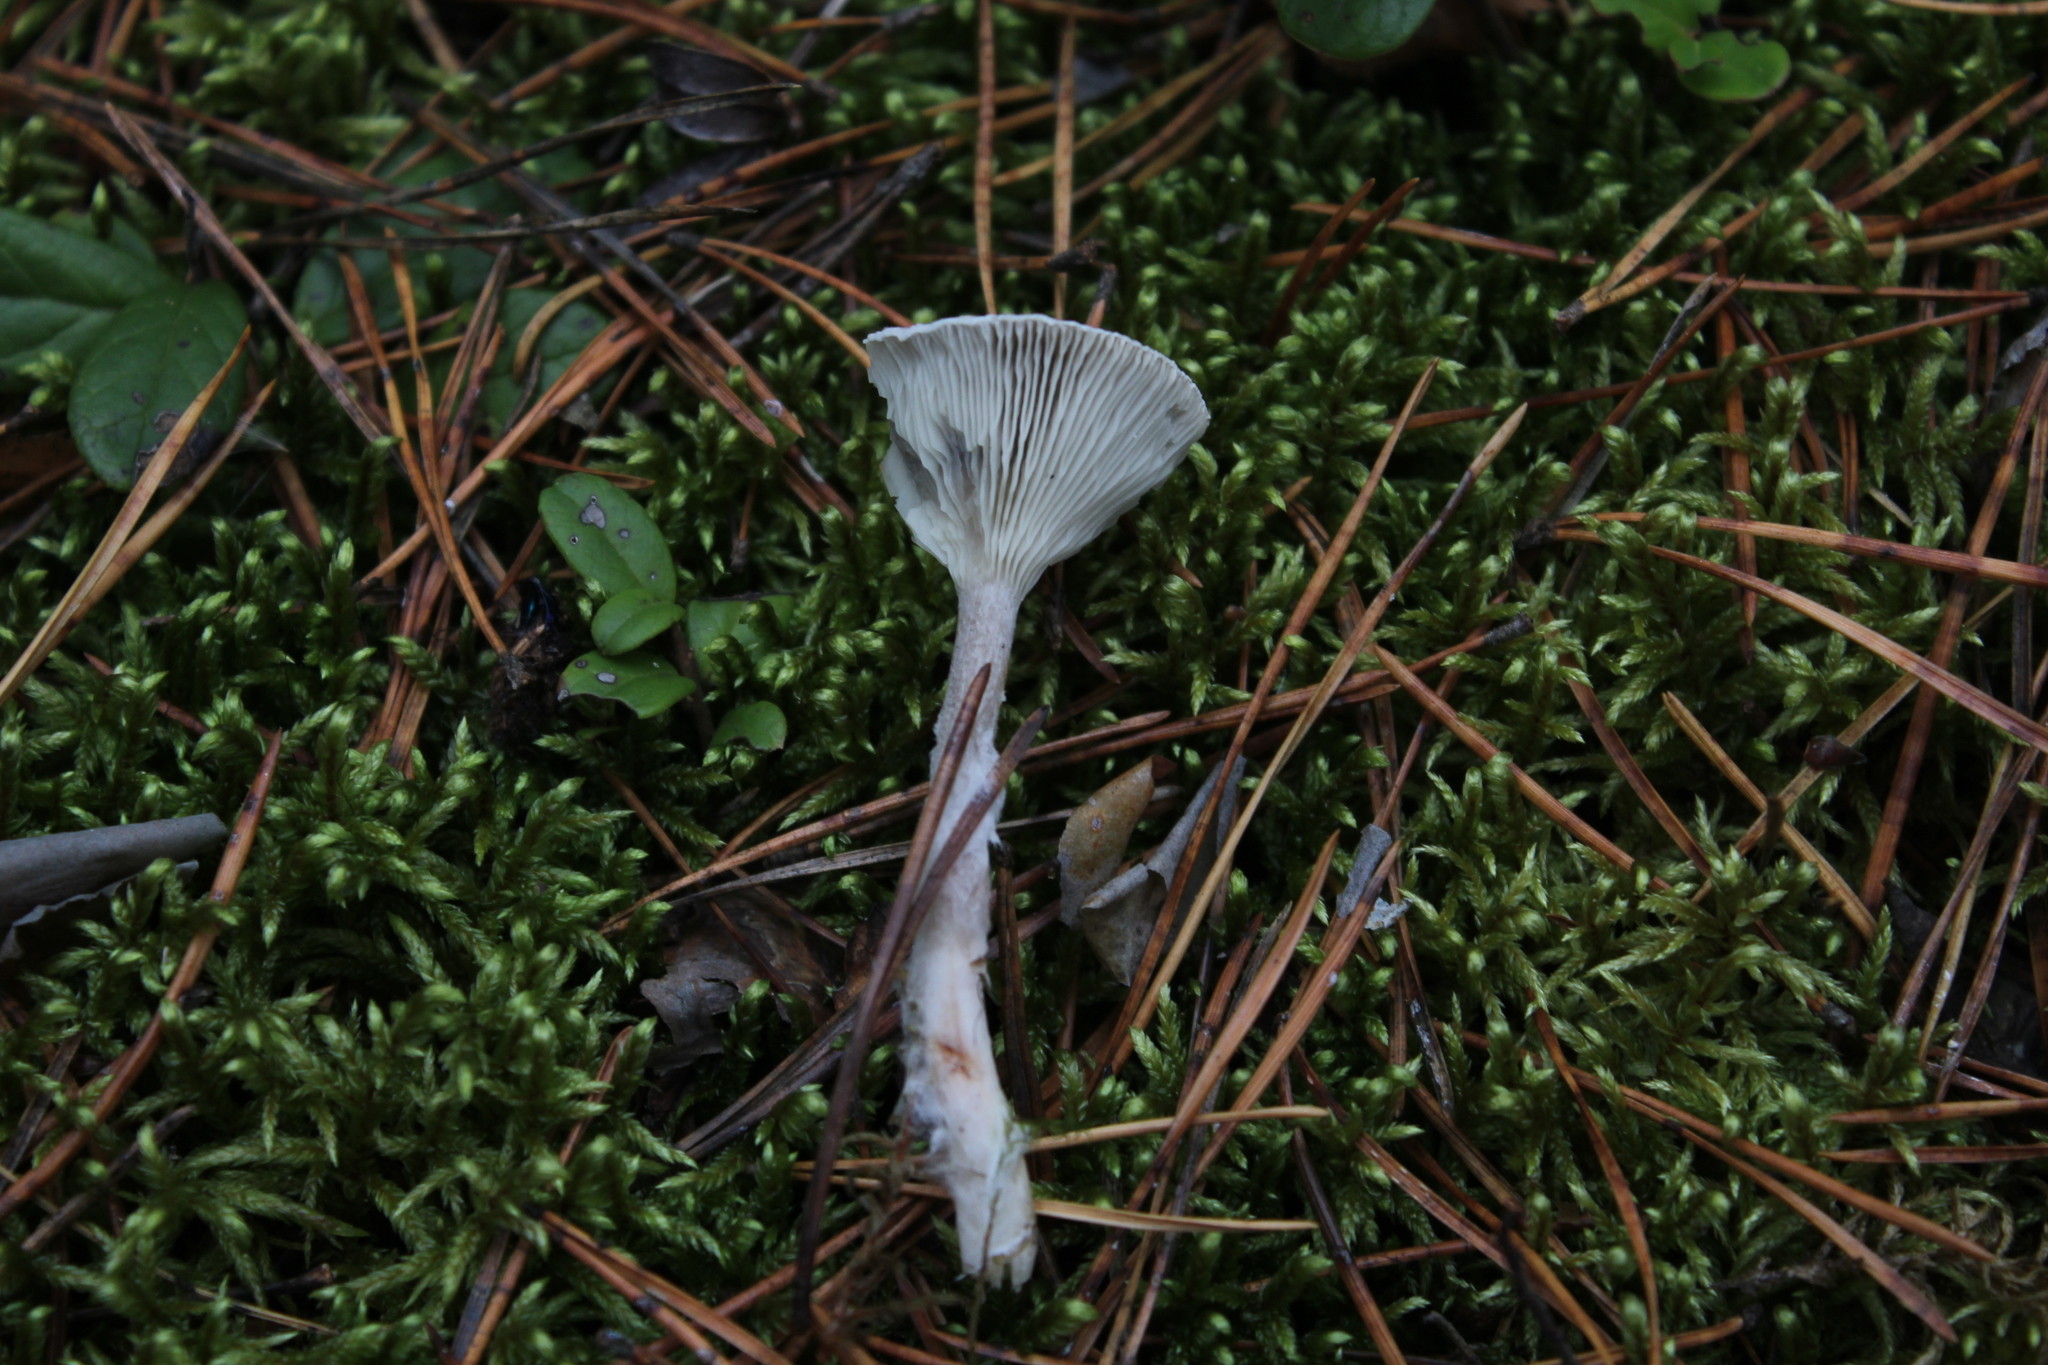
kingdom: Fungi
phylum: Basidiomycota
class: Agaricomycetes
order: Agaricales
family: Hygrophoraceae
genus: Cantharellula
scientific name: Cantharellula umbonata
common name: The humpback
